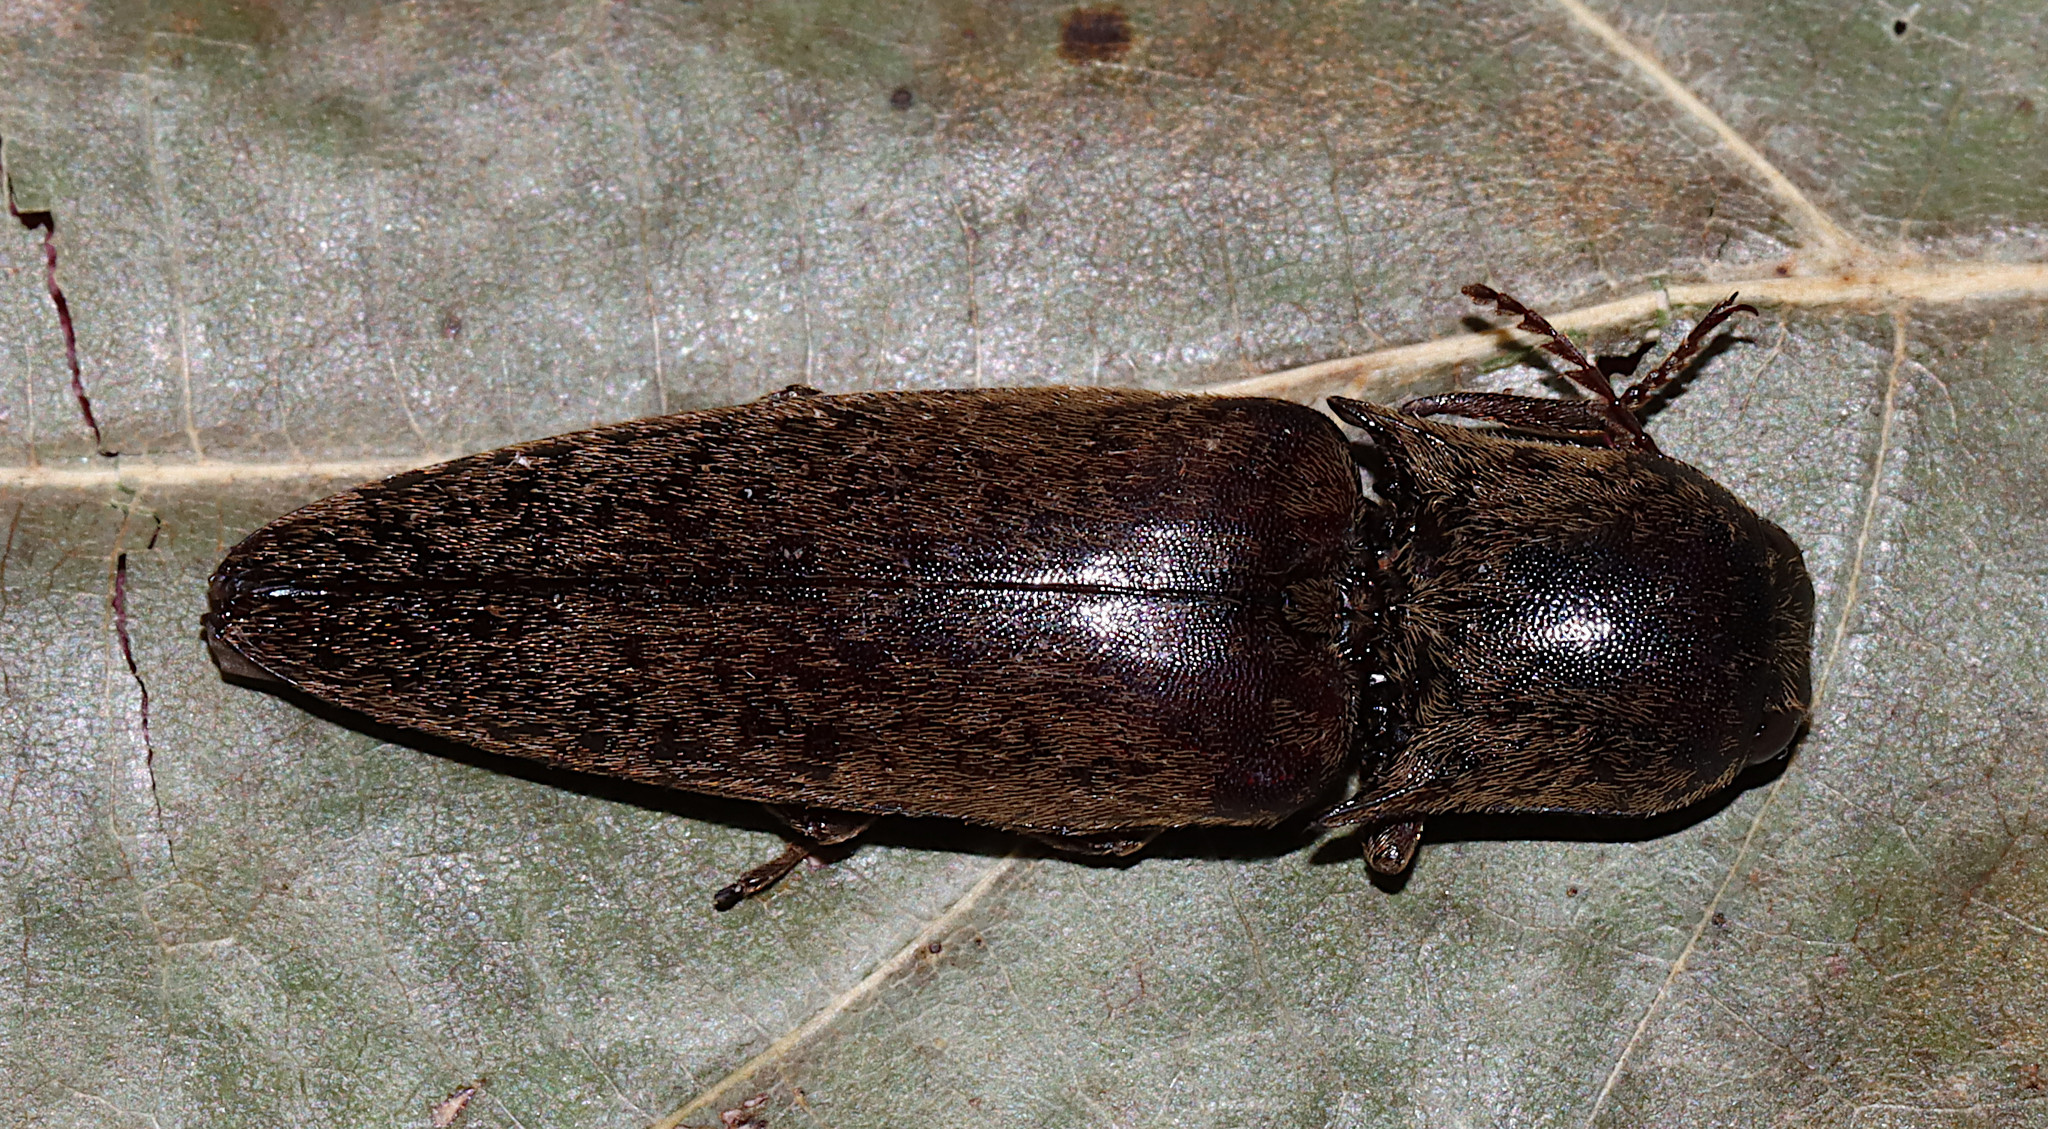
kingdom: Animalia
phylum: Arthropoda
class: Insecta
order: Coleoptera
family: Elateridae
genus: Orthostethus
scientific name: Orthostethus infuscatus
